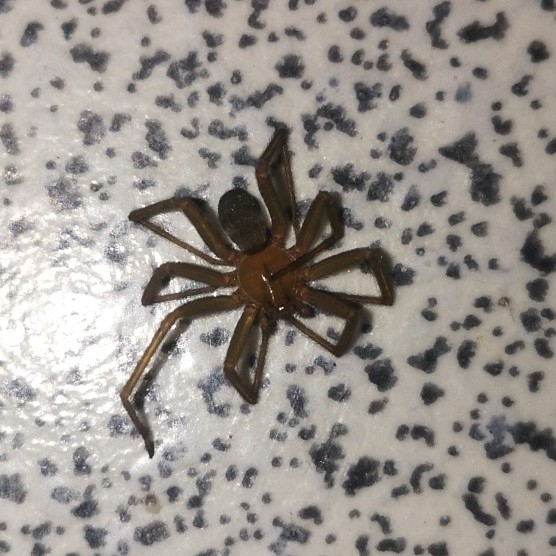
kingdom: Animalia
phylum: Arthropoda
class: Arachnida
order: Araneae
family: Sicariidae
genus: Loxosceles
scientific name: Loxosceles laeta
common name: Chilean recluse spider
